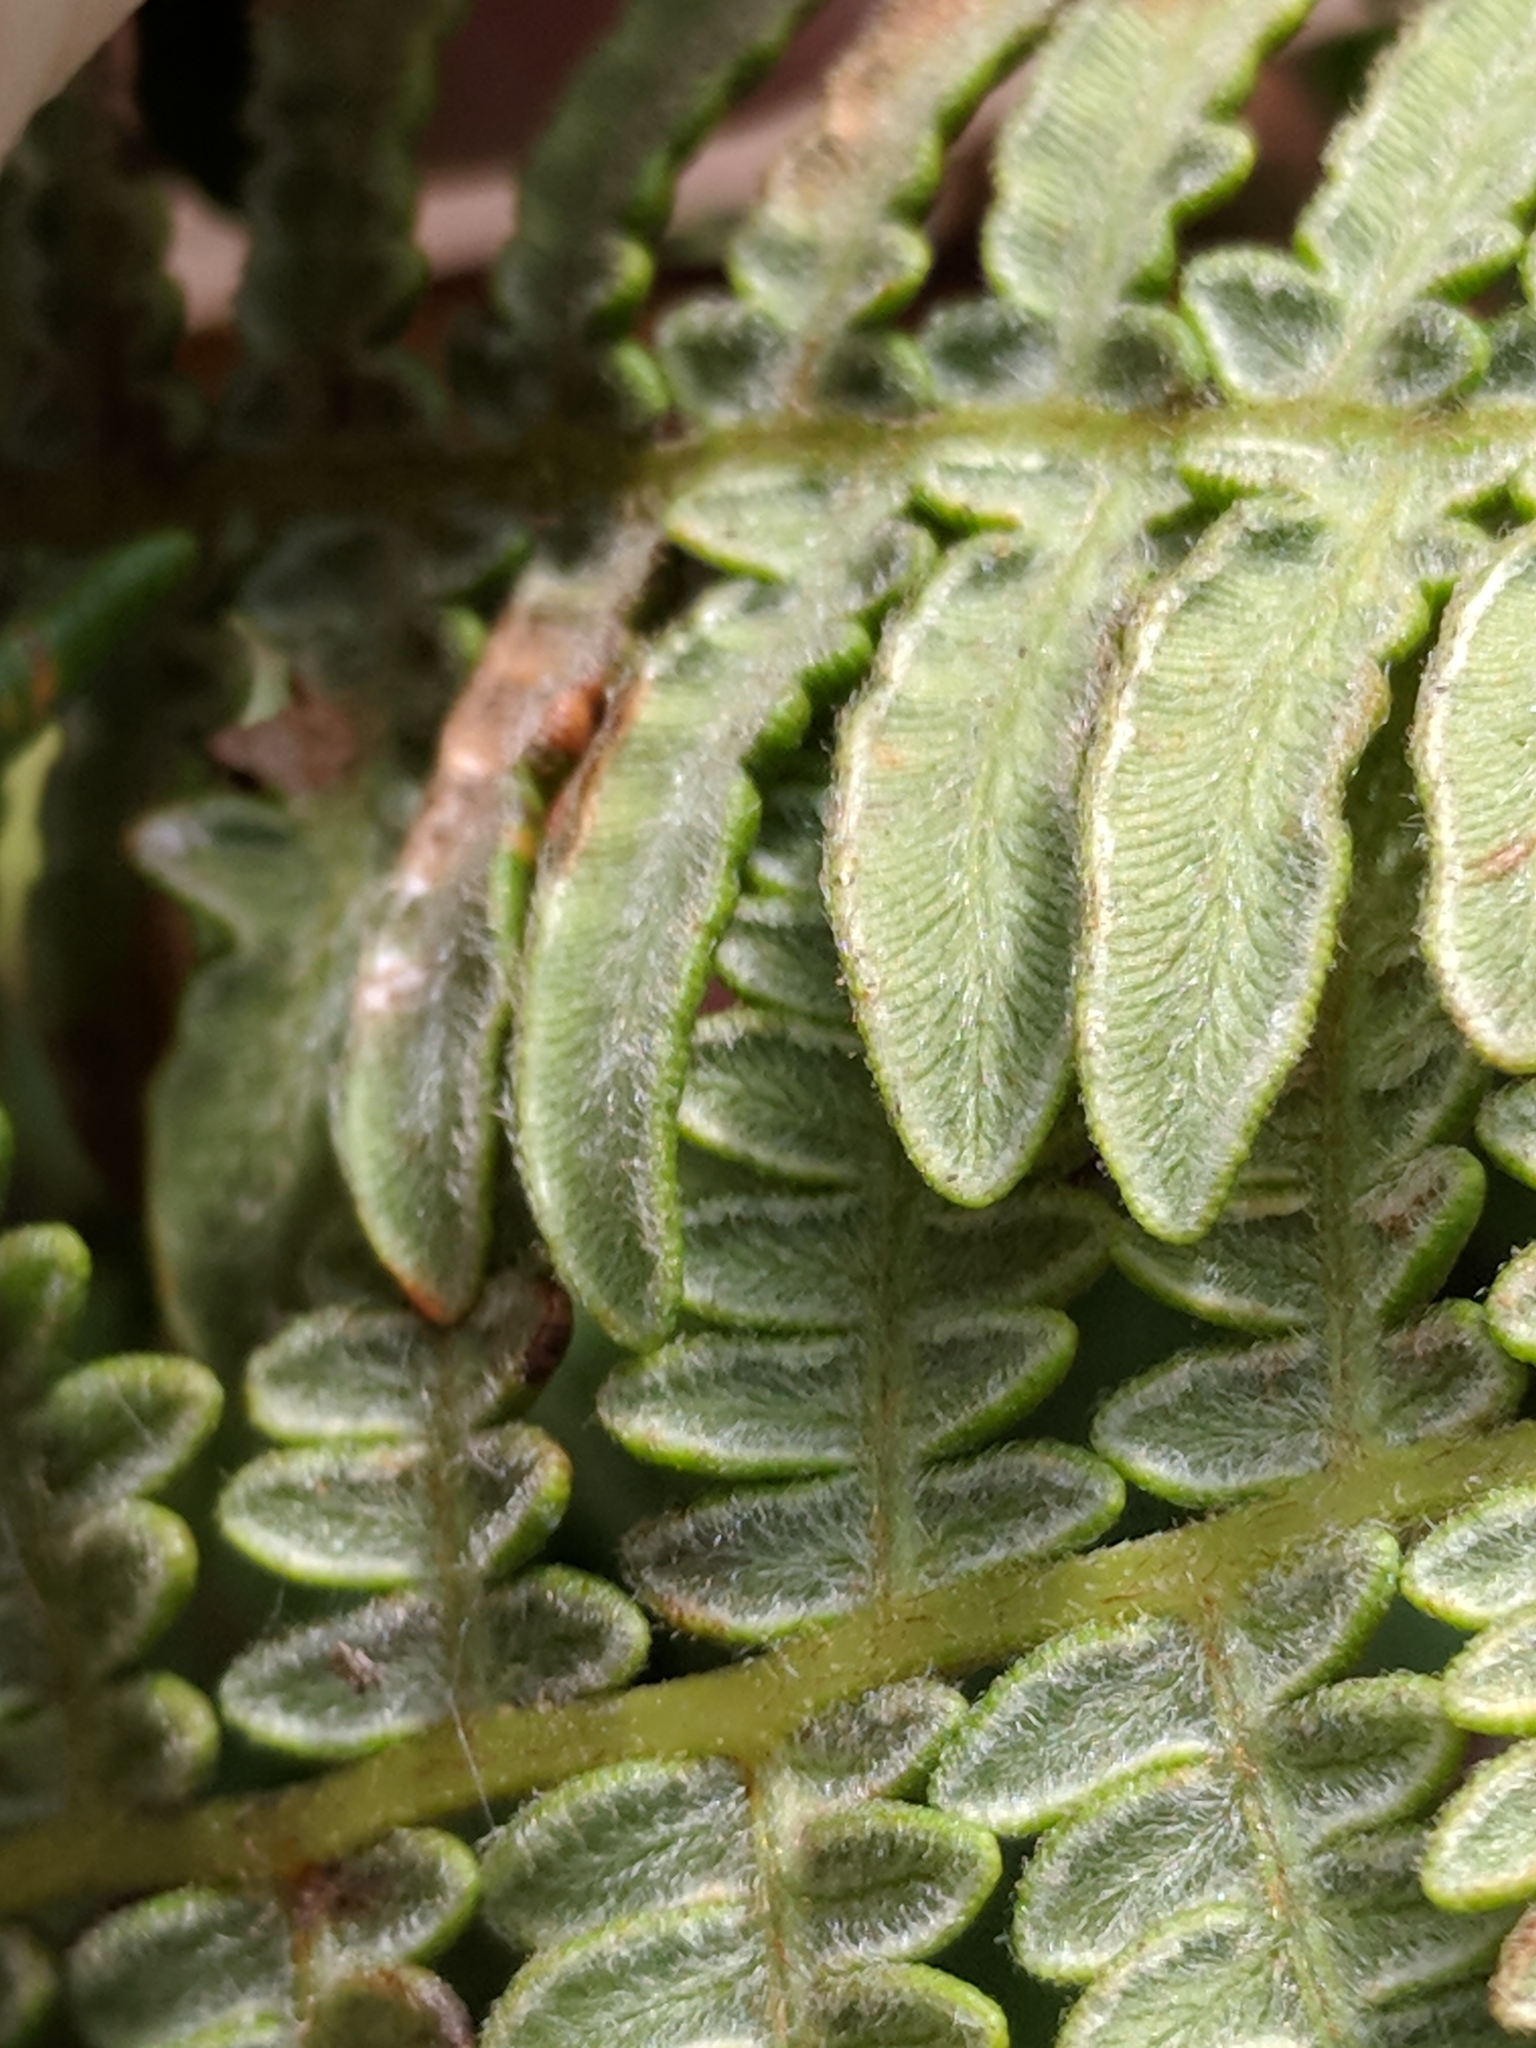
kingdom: Plantae
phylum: Tracheophyta
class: Polypodiopsida
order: Polypodiales
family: Dennstaedtiaceae
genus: Pteridium
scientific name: Pteridium aquilinum
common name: Bracken
